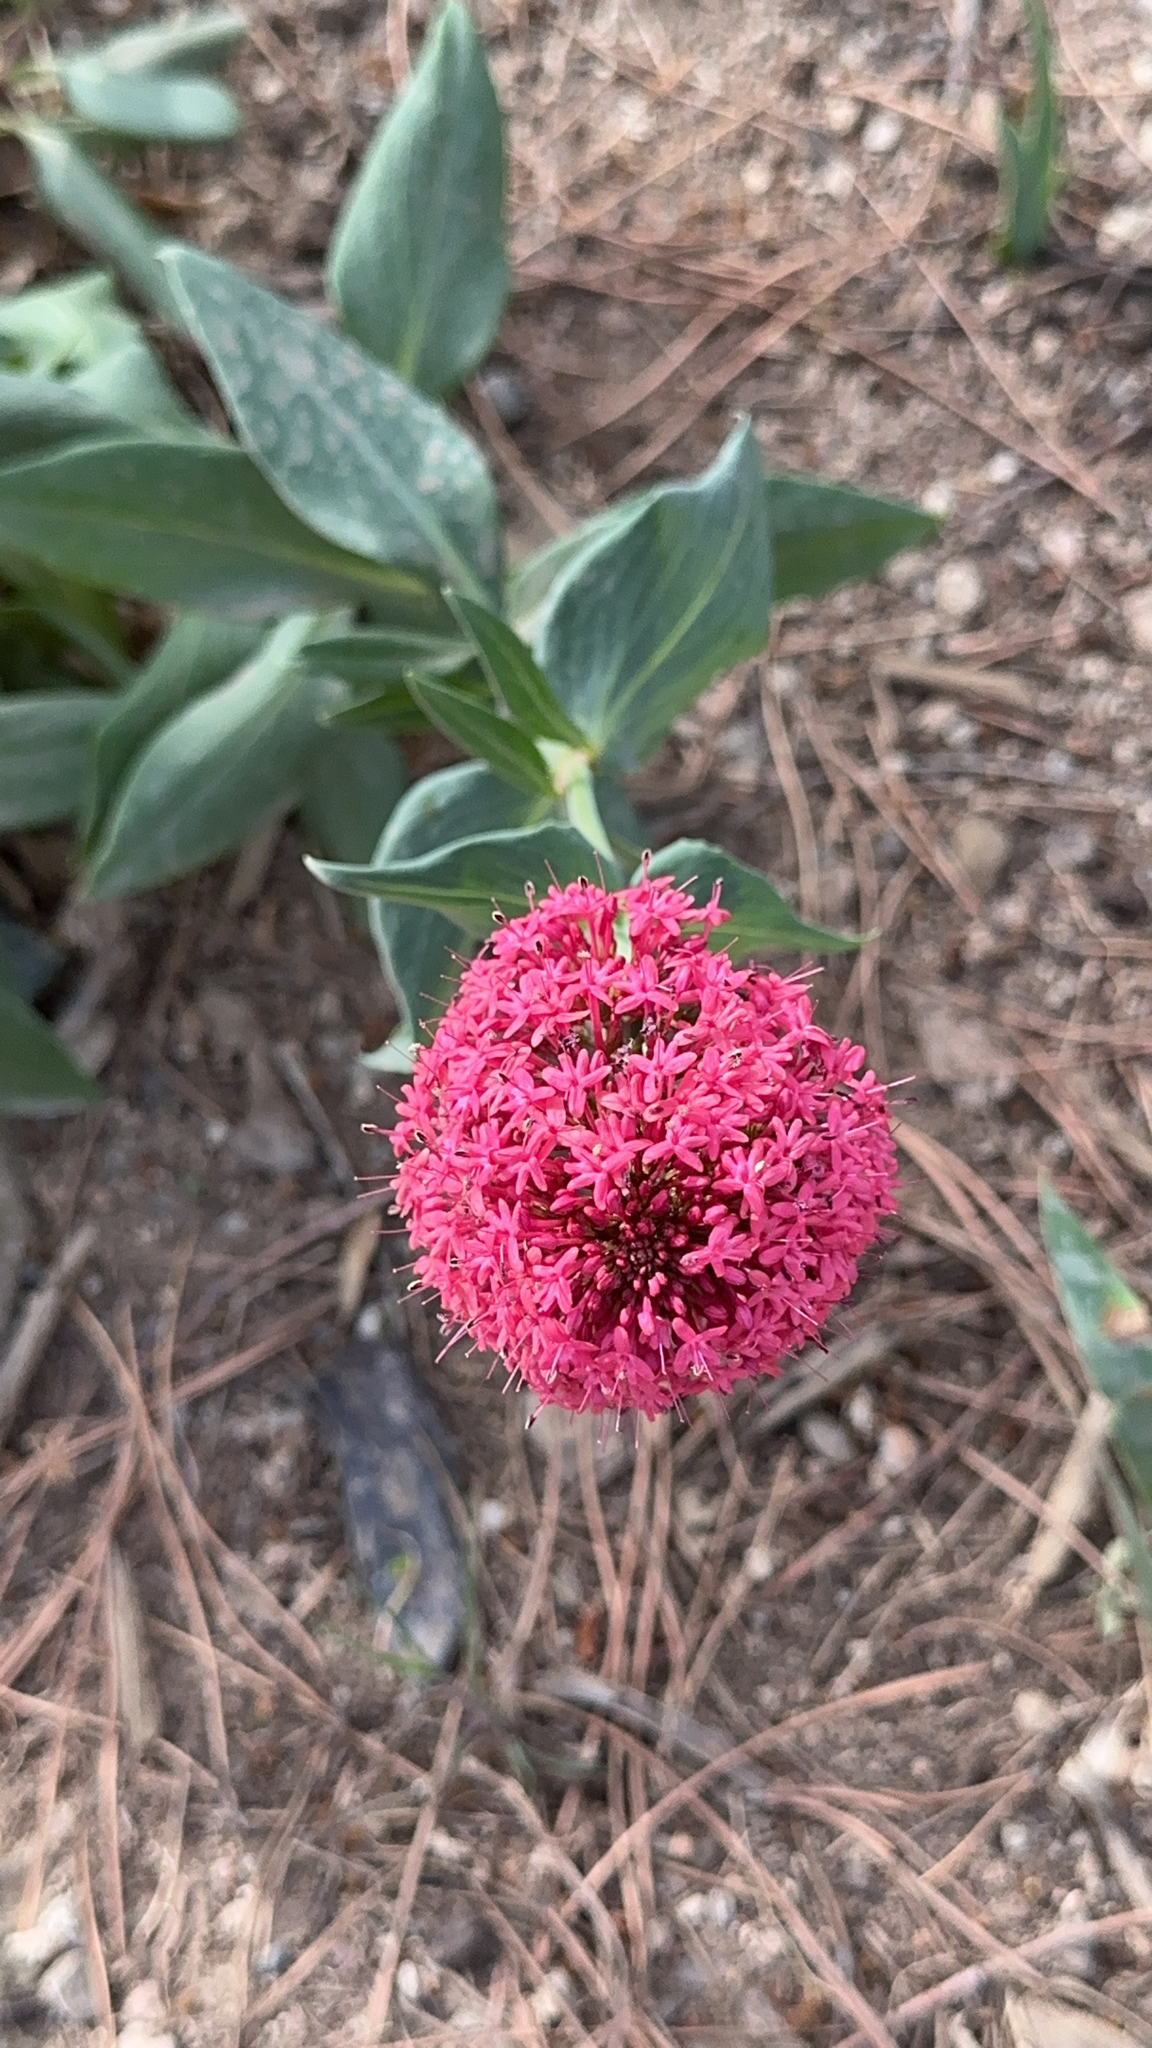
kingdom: Plantae
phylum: Tracheophyta
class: Magnoliopsida
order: Dipsacales
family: Caprifoliaceae
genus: Centranthus
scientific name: Centranthus ruber
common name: Red valerian
